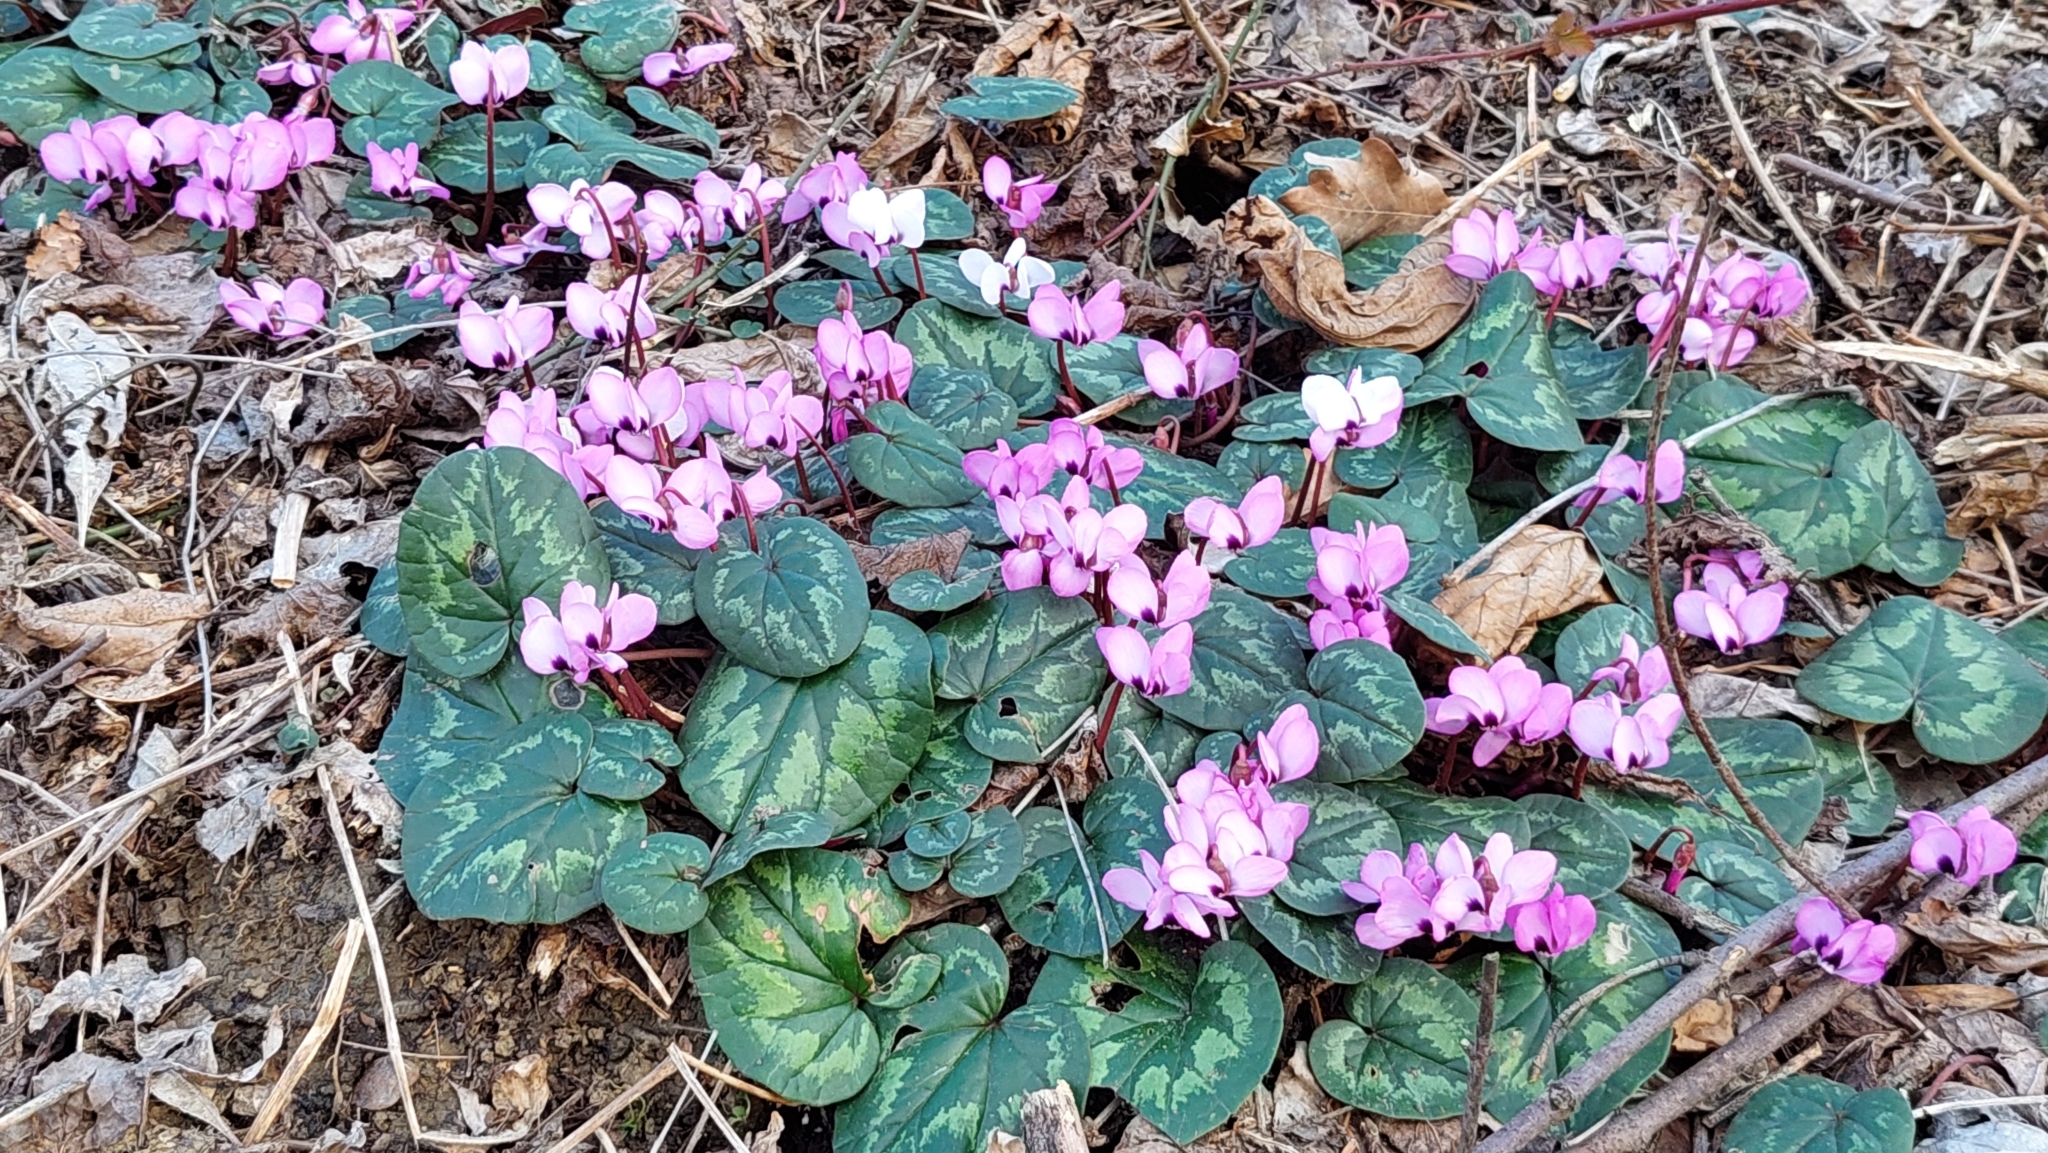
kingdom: Plantae
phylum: Tracheophyta
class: Magnoliopsida
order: Ericales
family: Primulaceae
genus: Cyclamen
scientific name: Cyclamen coum
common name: Eastern sowbread
